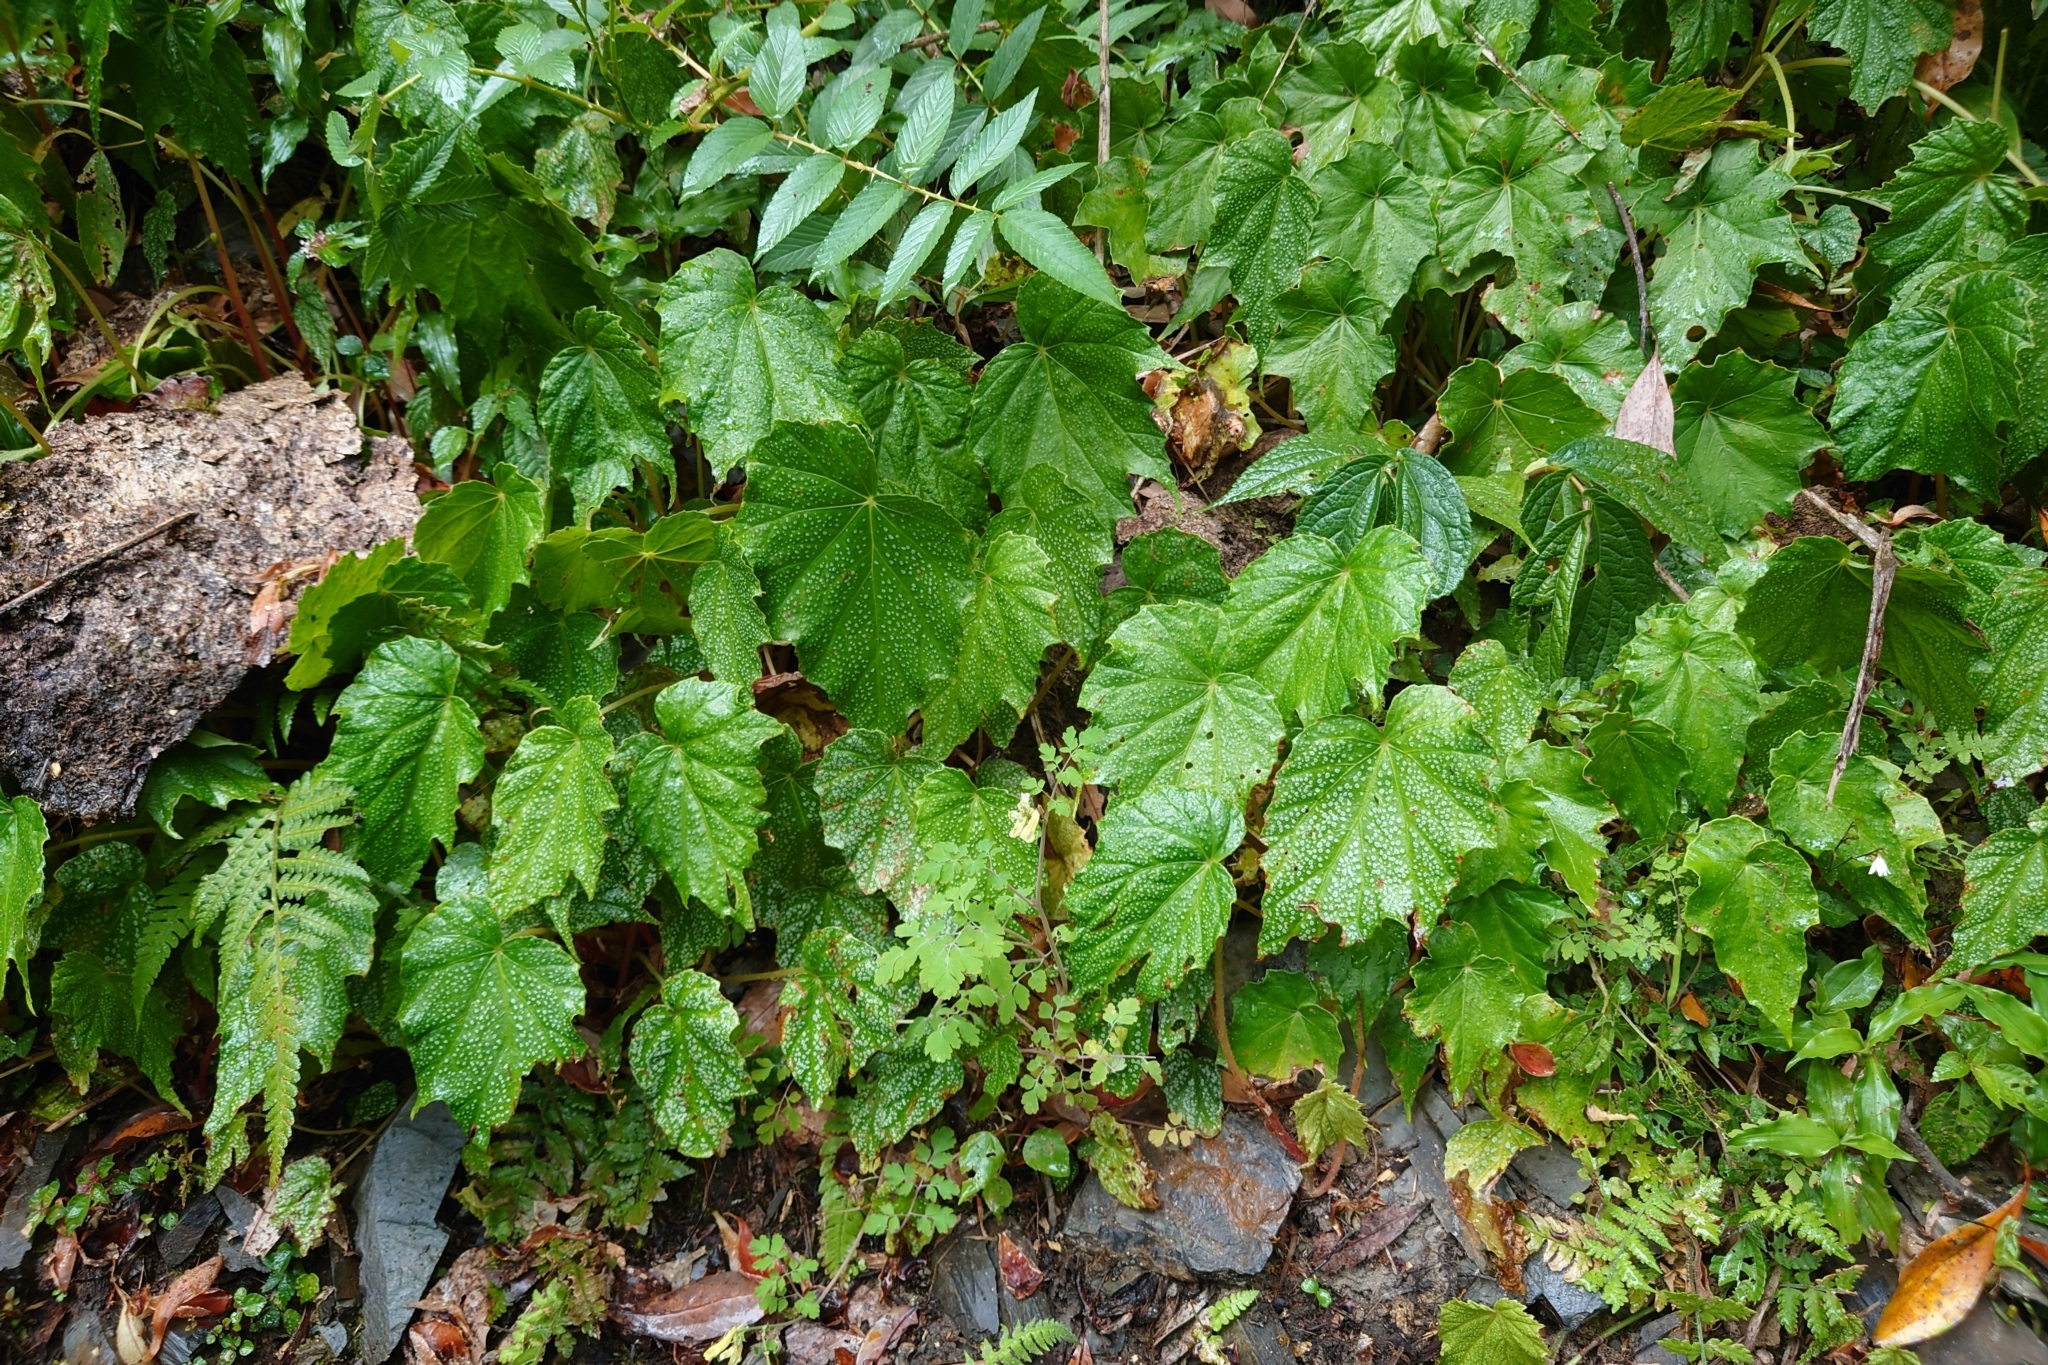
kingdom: Plantae
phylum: Tracheophyta
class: Magnoliopsida
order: Cucurbitales
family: Begoniaceae
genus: Begonia
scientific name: Begonia formosana
